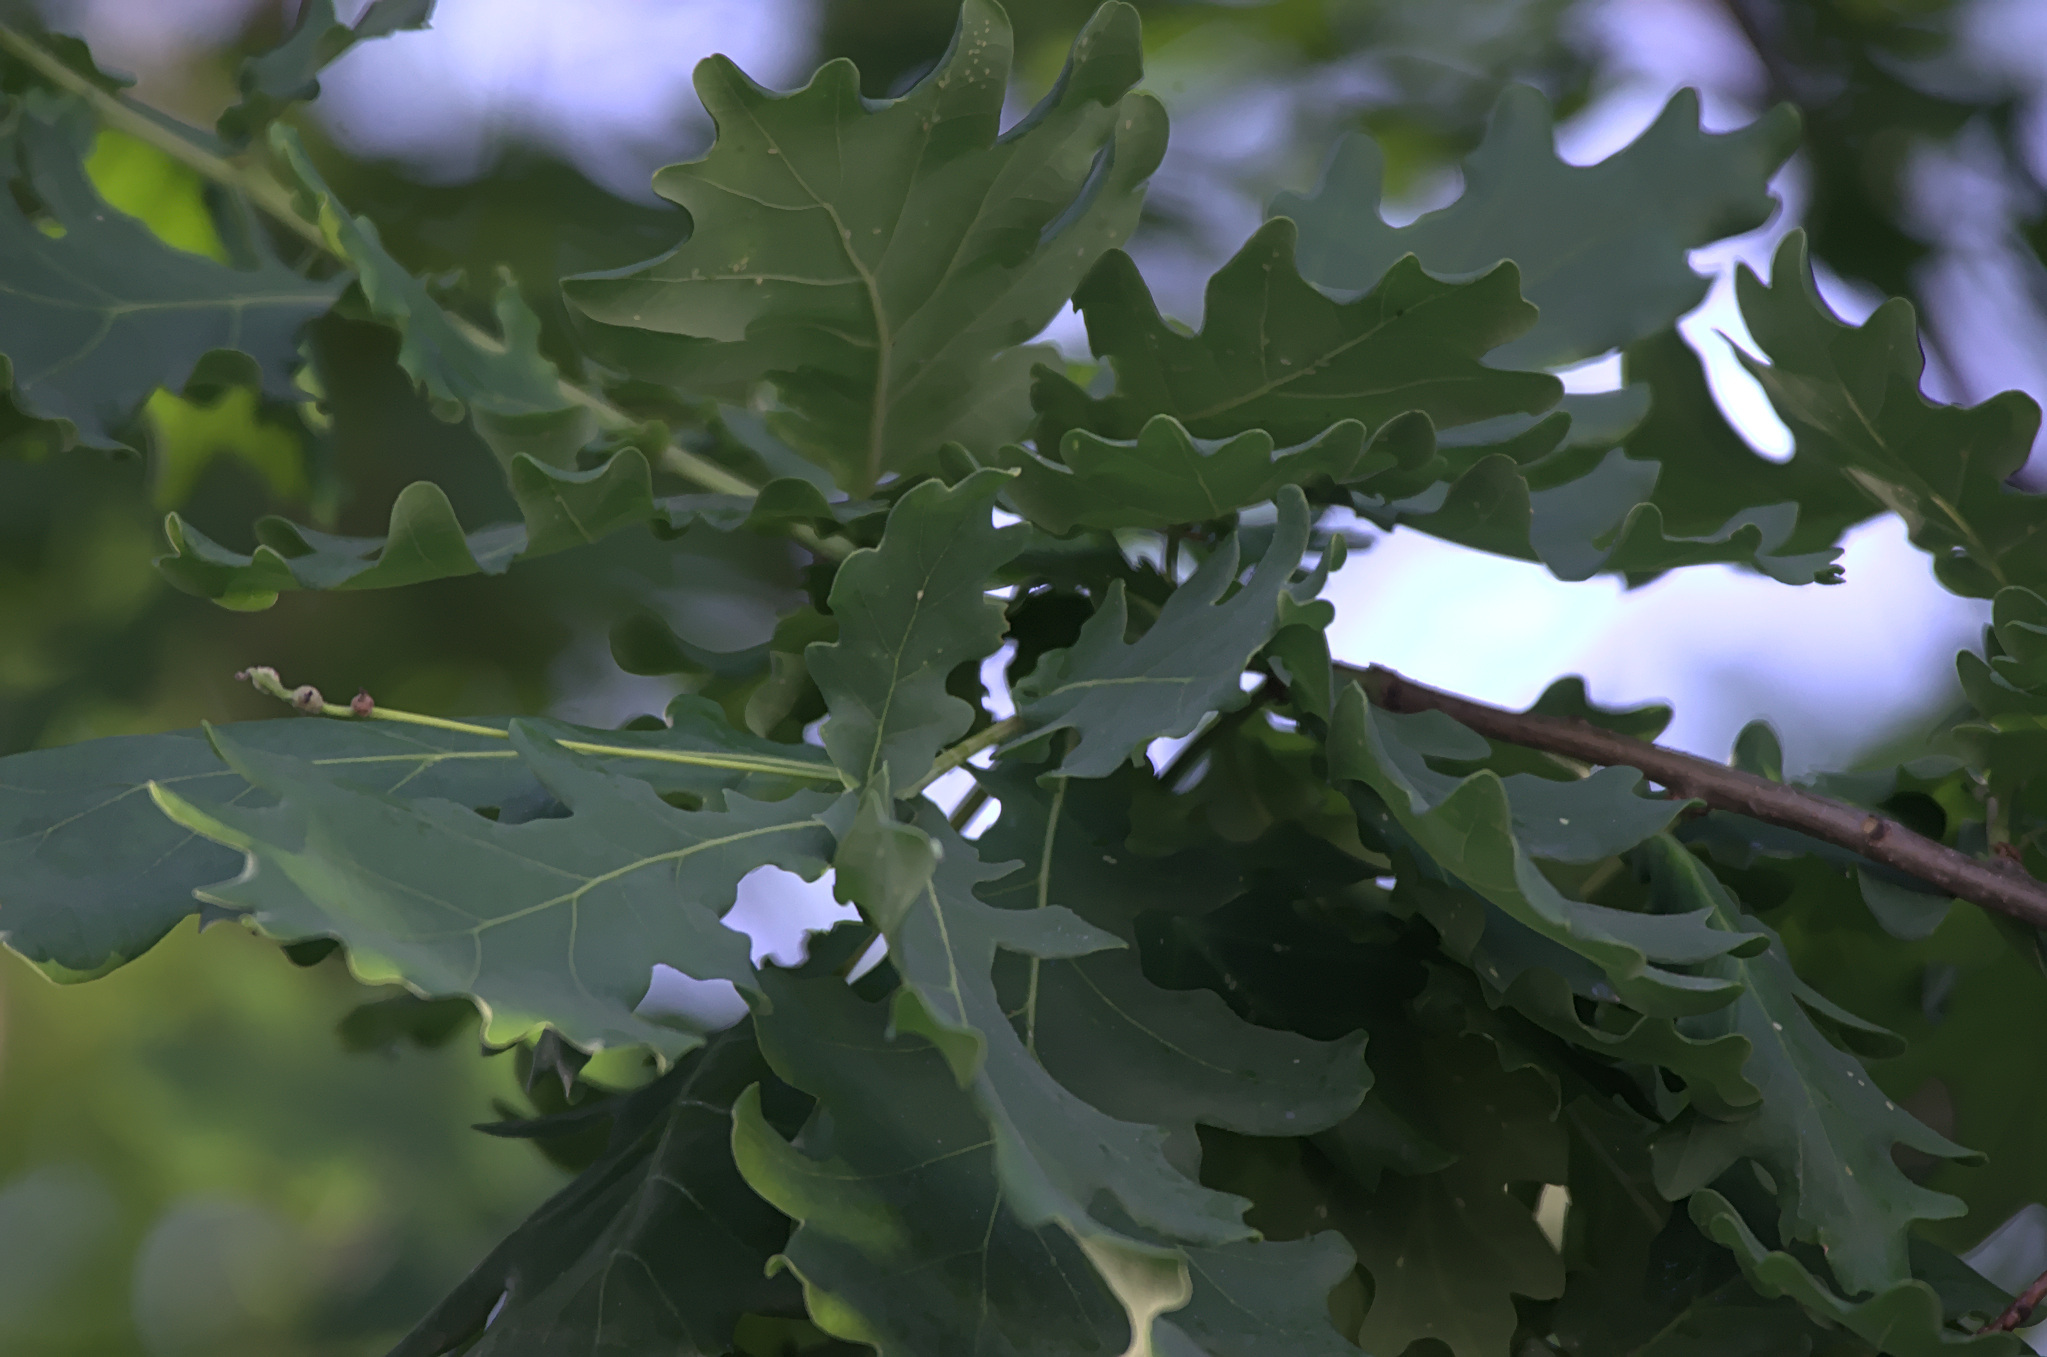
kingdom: Plantae
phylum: Tracheophyta
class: Magnoliopsida
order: Fagales
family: Fagaceae
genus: Quercus
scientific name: Quercus robur
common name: Pedunculate oak
